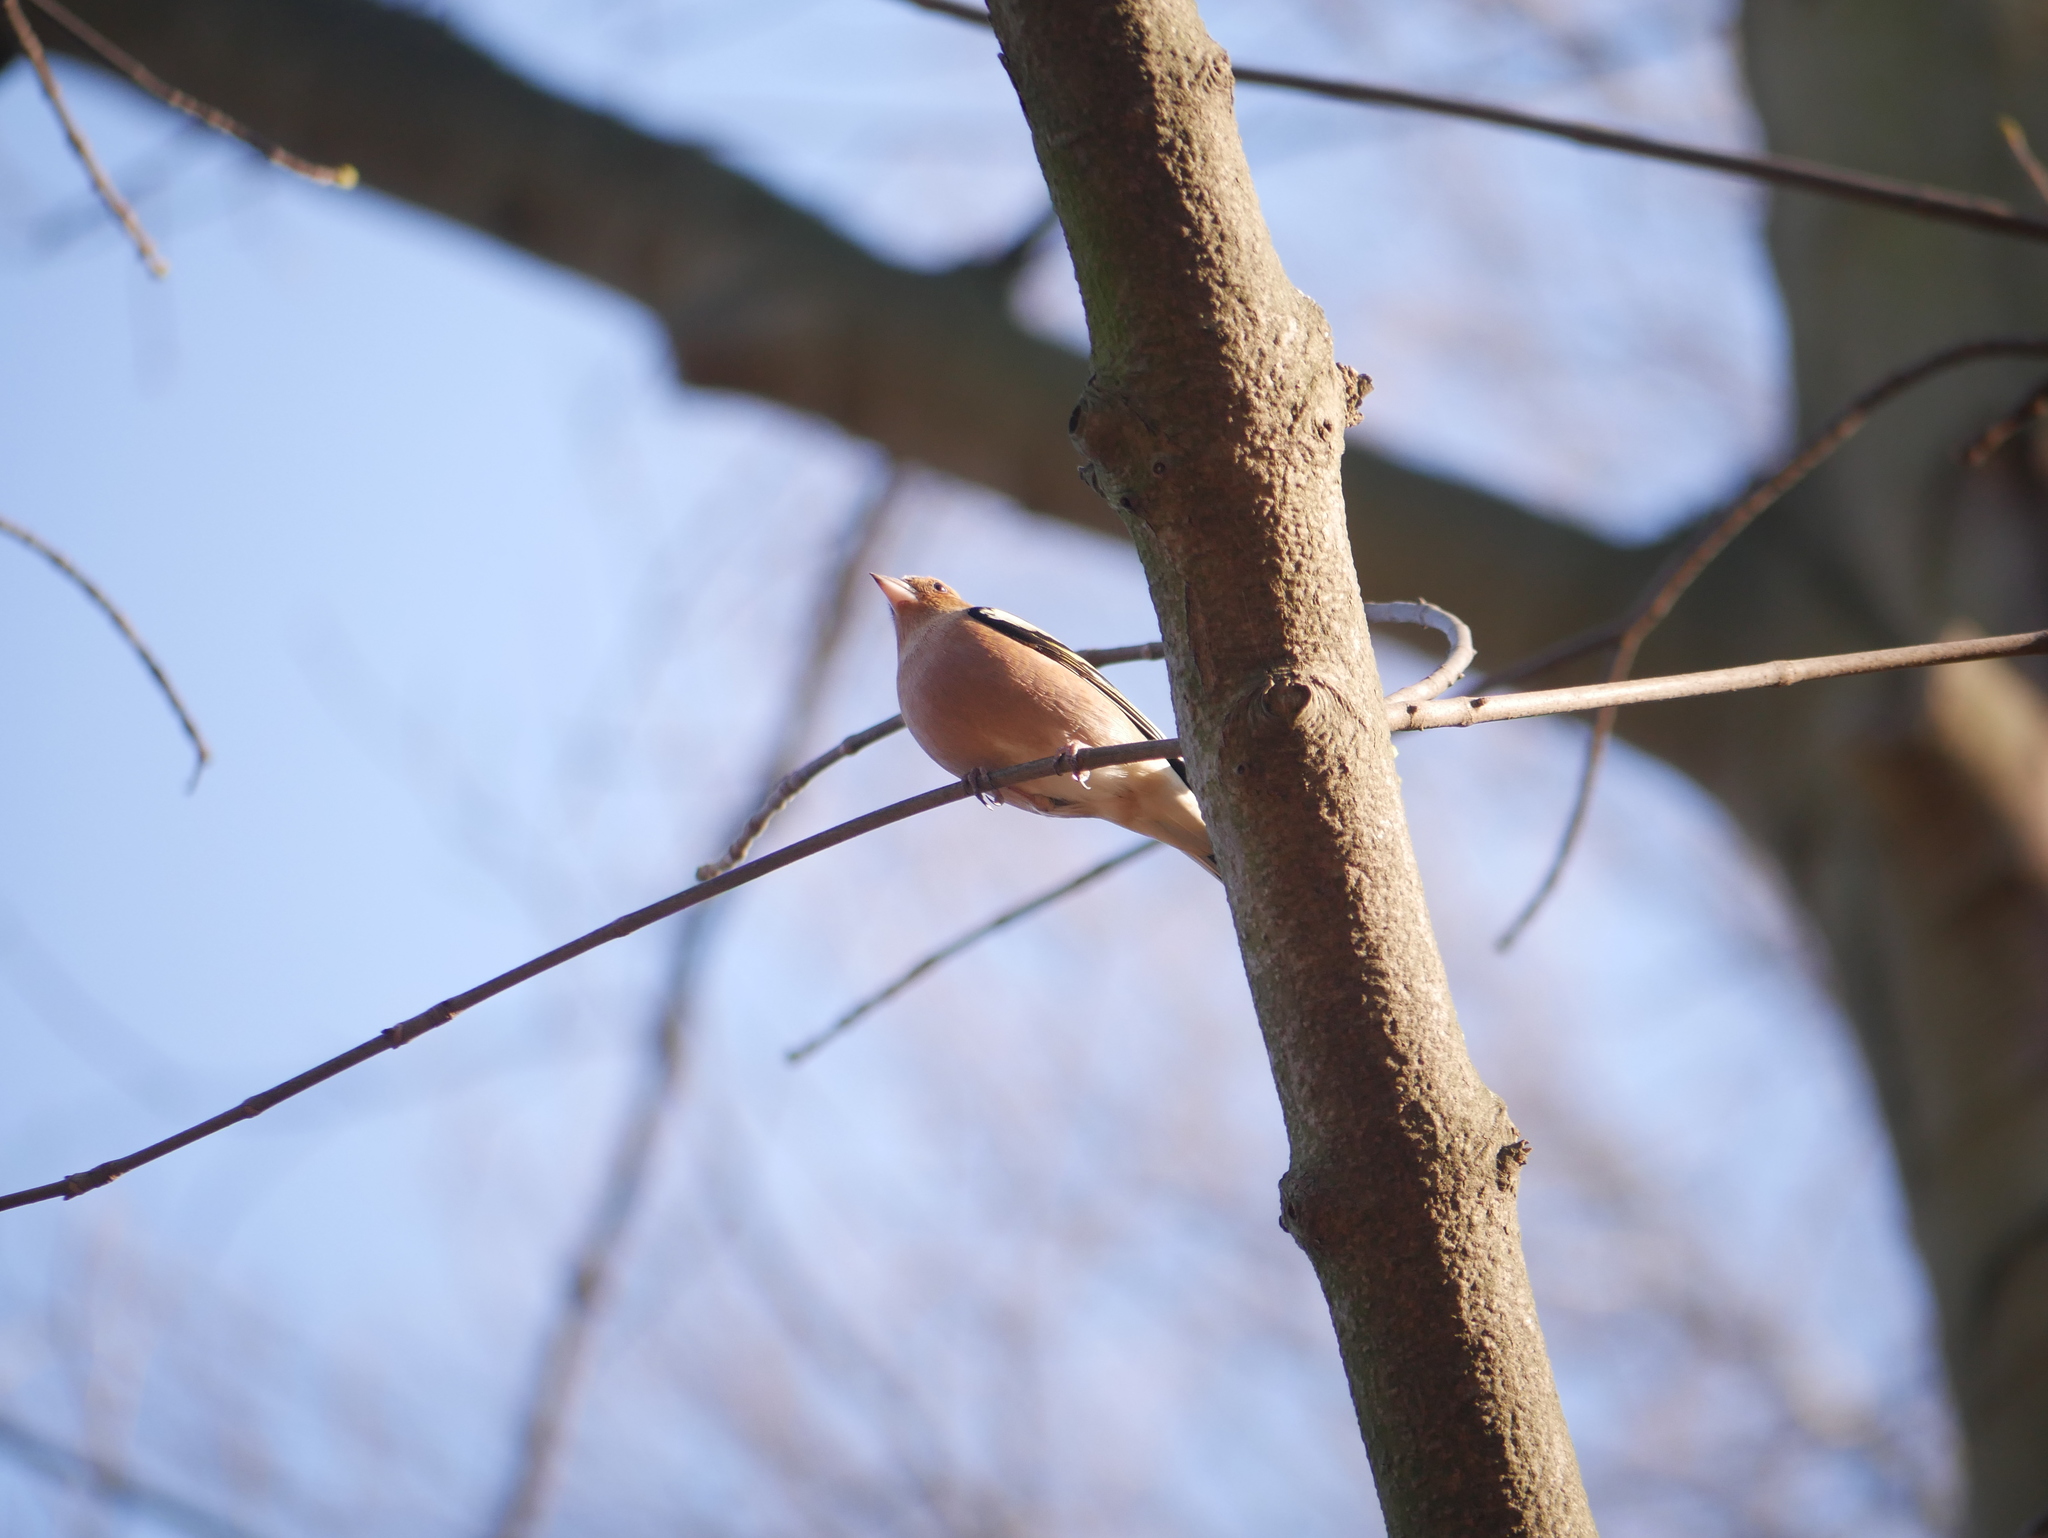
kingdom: Animalia
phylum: Chordata
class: Aves
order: Passeriformes
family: Fringillidae
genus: Fringilla
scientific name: Fringilla coelebs
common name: Common chaffinch
